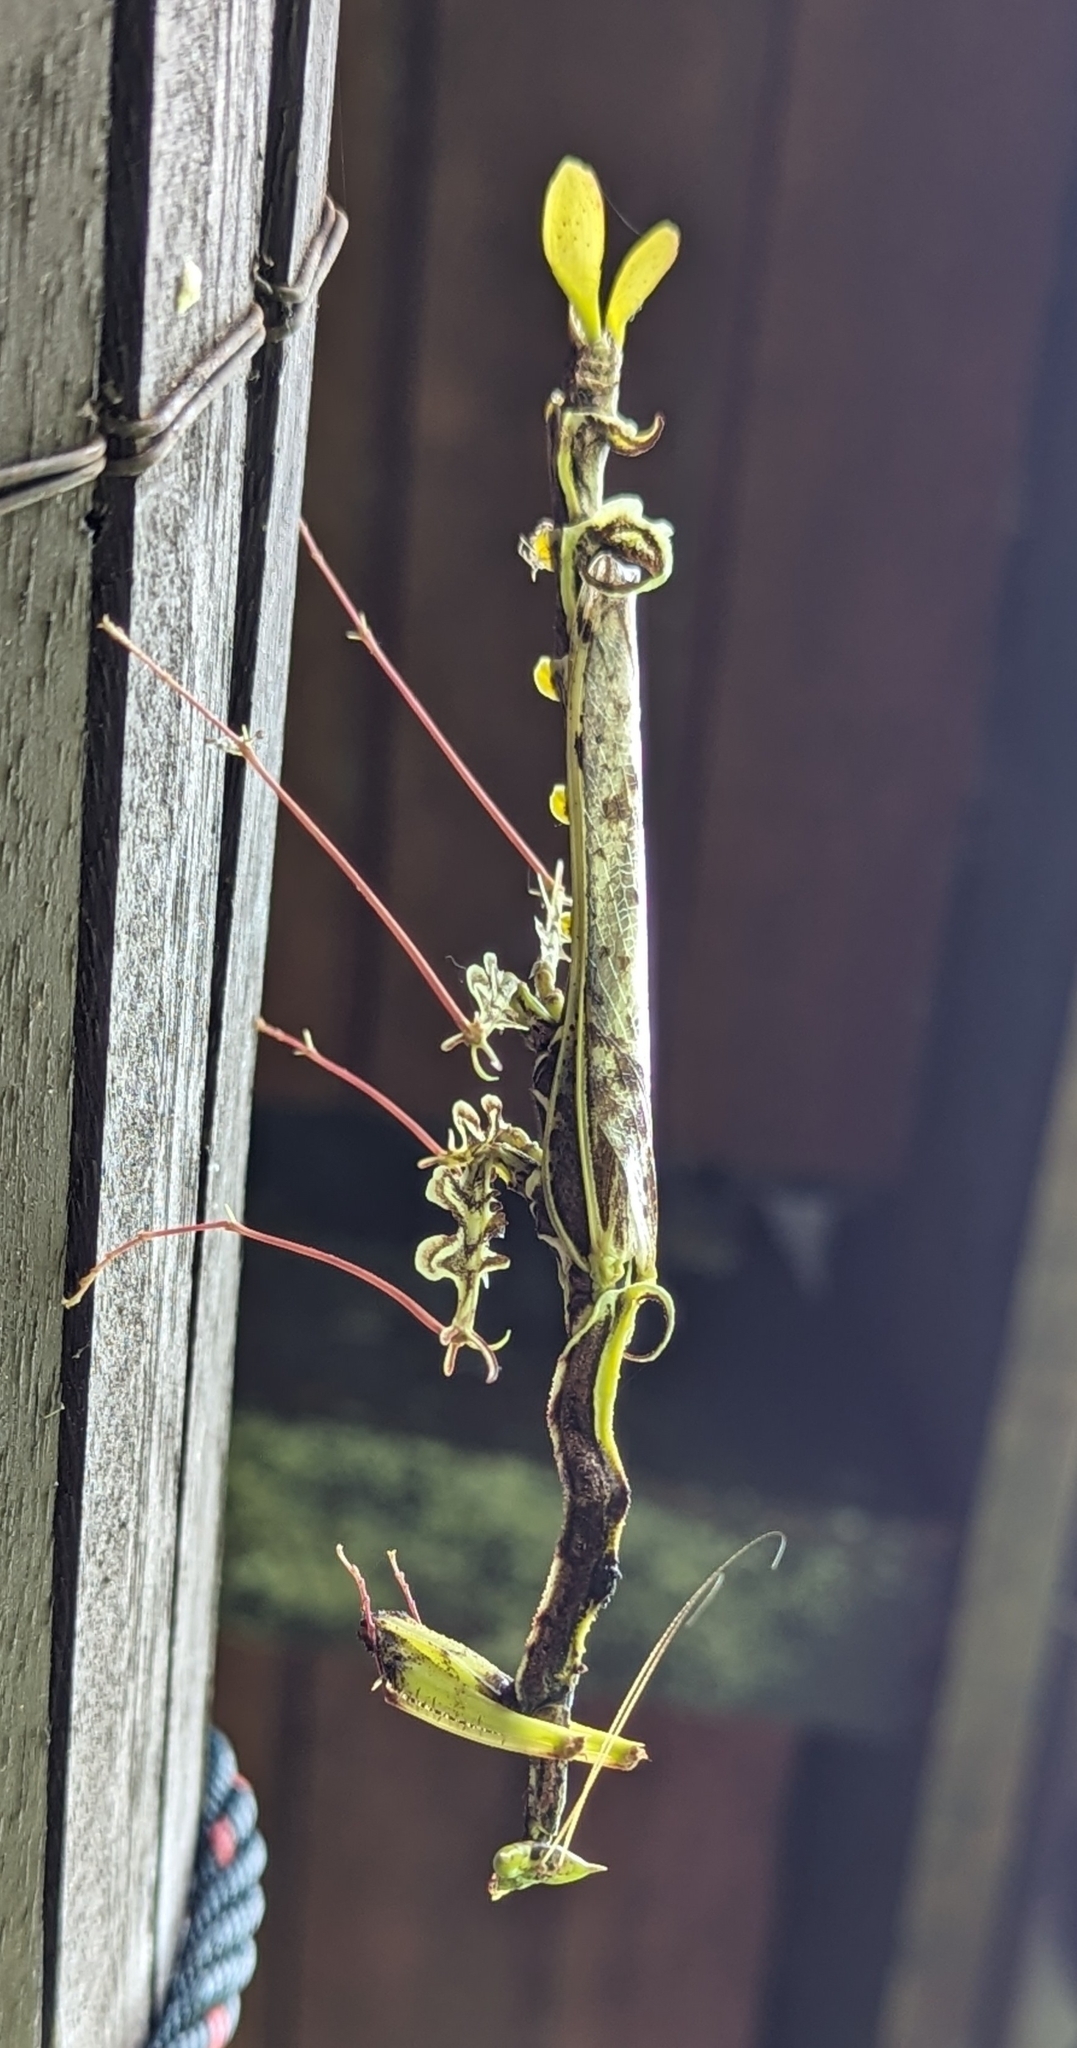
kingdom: Animalia
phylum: Arthropoda
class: Insecta
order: Mantodea
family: Toxoderidae
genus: Protoxodera
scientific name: Protoxodera monstrosa
